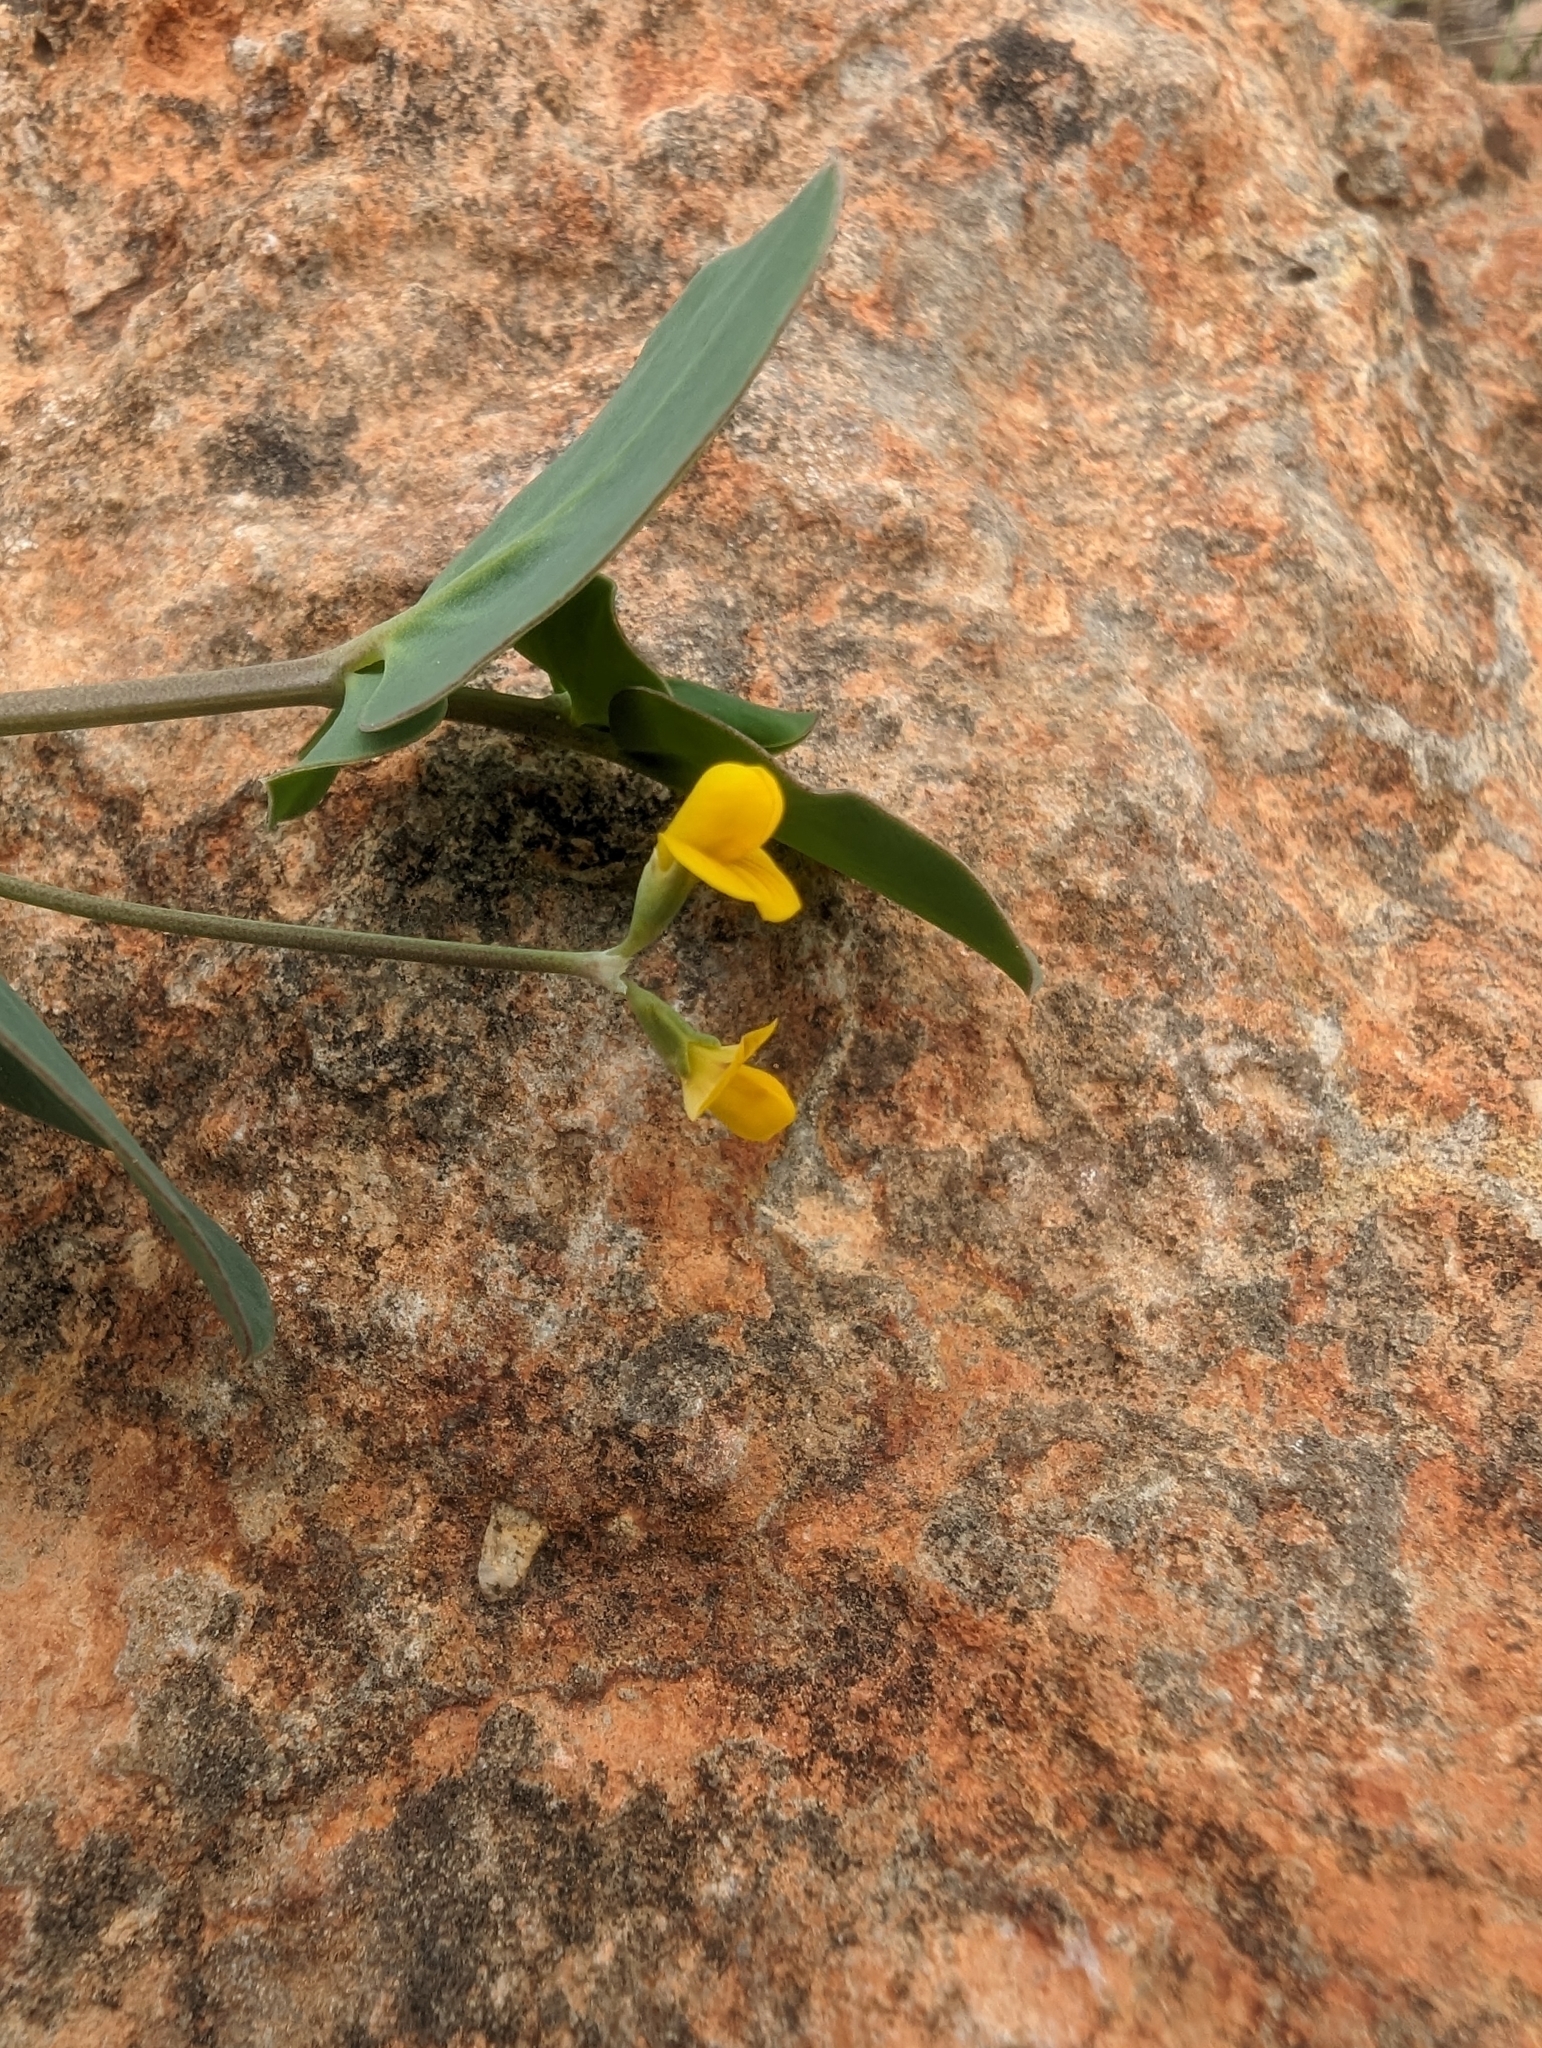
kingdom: Plantae
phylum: Tracheophyta
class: Magnoliopsida
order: Fabales
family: Fabaceae
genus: Coronilla
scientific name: Coronilla scorpioides
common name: Annual scorpion-vetch
